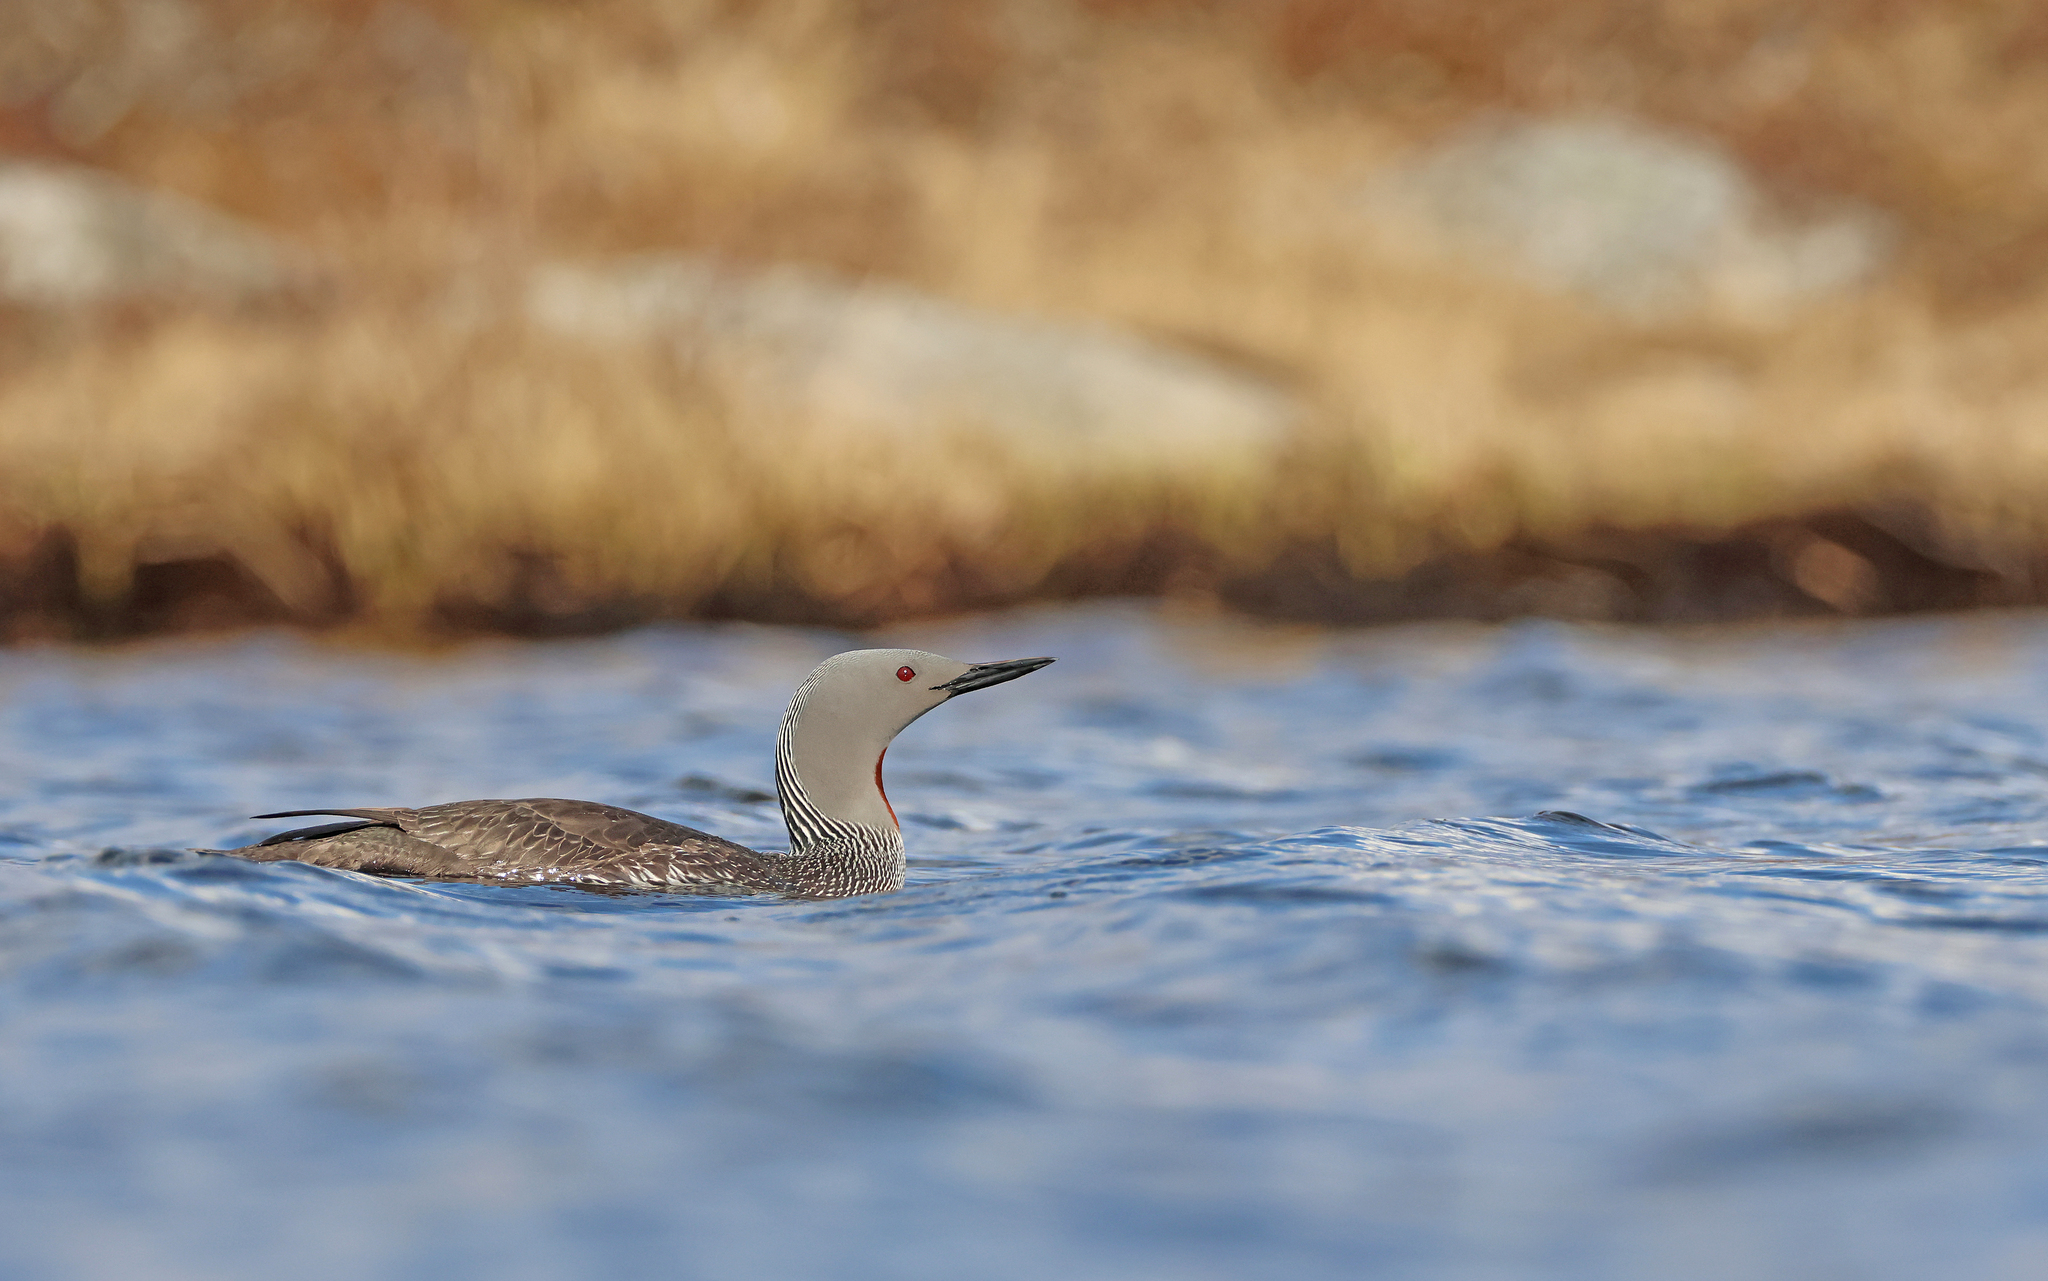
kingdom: Animalia
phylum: Chordata
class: Aves
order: Gaviiformes
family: Gaviidae
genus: Gavia
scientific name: Gavia stellata
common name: Red-throated loon
